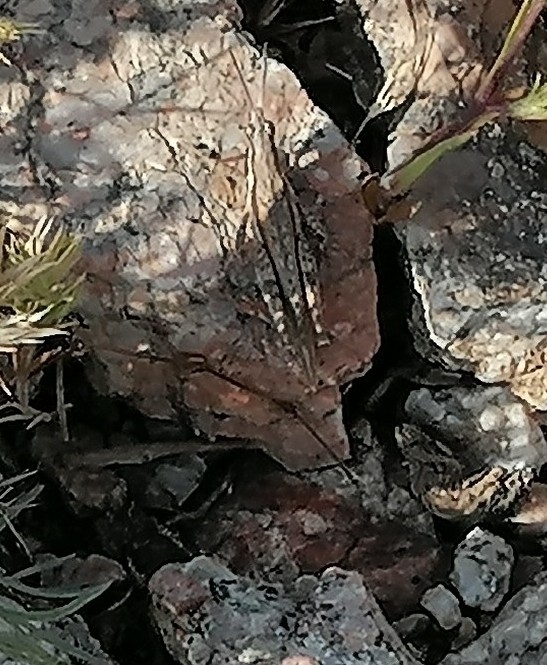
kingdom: Animalia
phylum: Arthropoda
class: Insecta
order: Orthoptera
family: Pyrgomorphidae
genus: Pyrgomorpha
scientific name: Pyrgomorpha bispinosa
